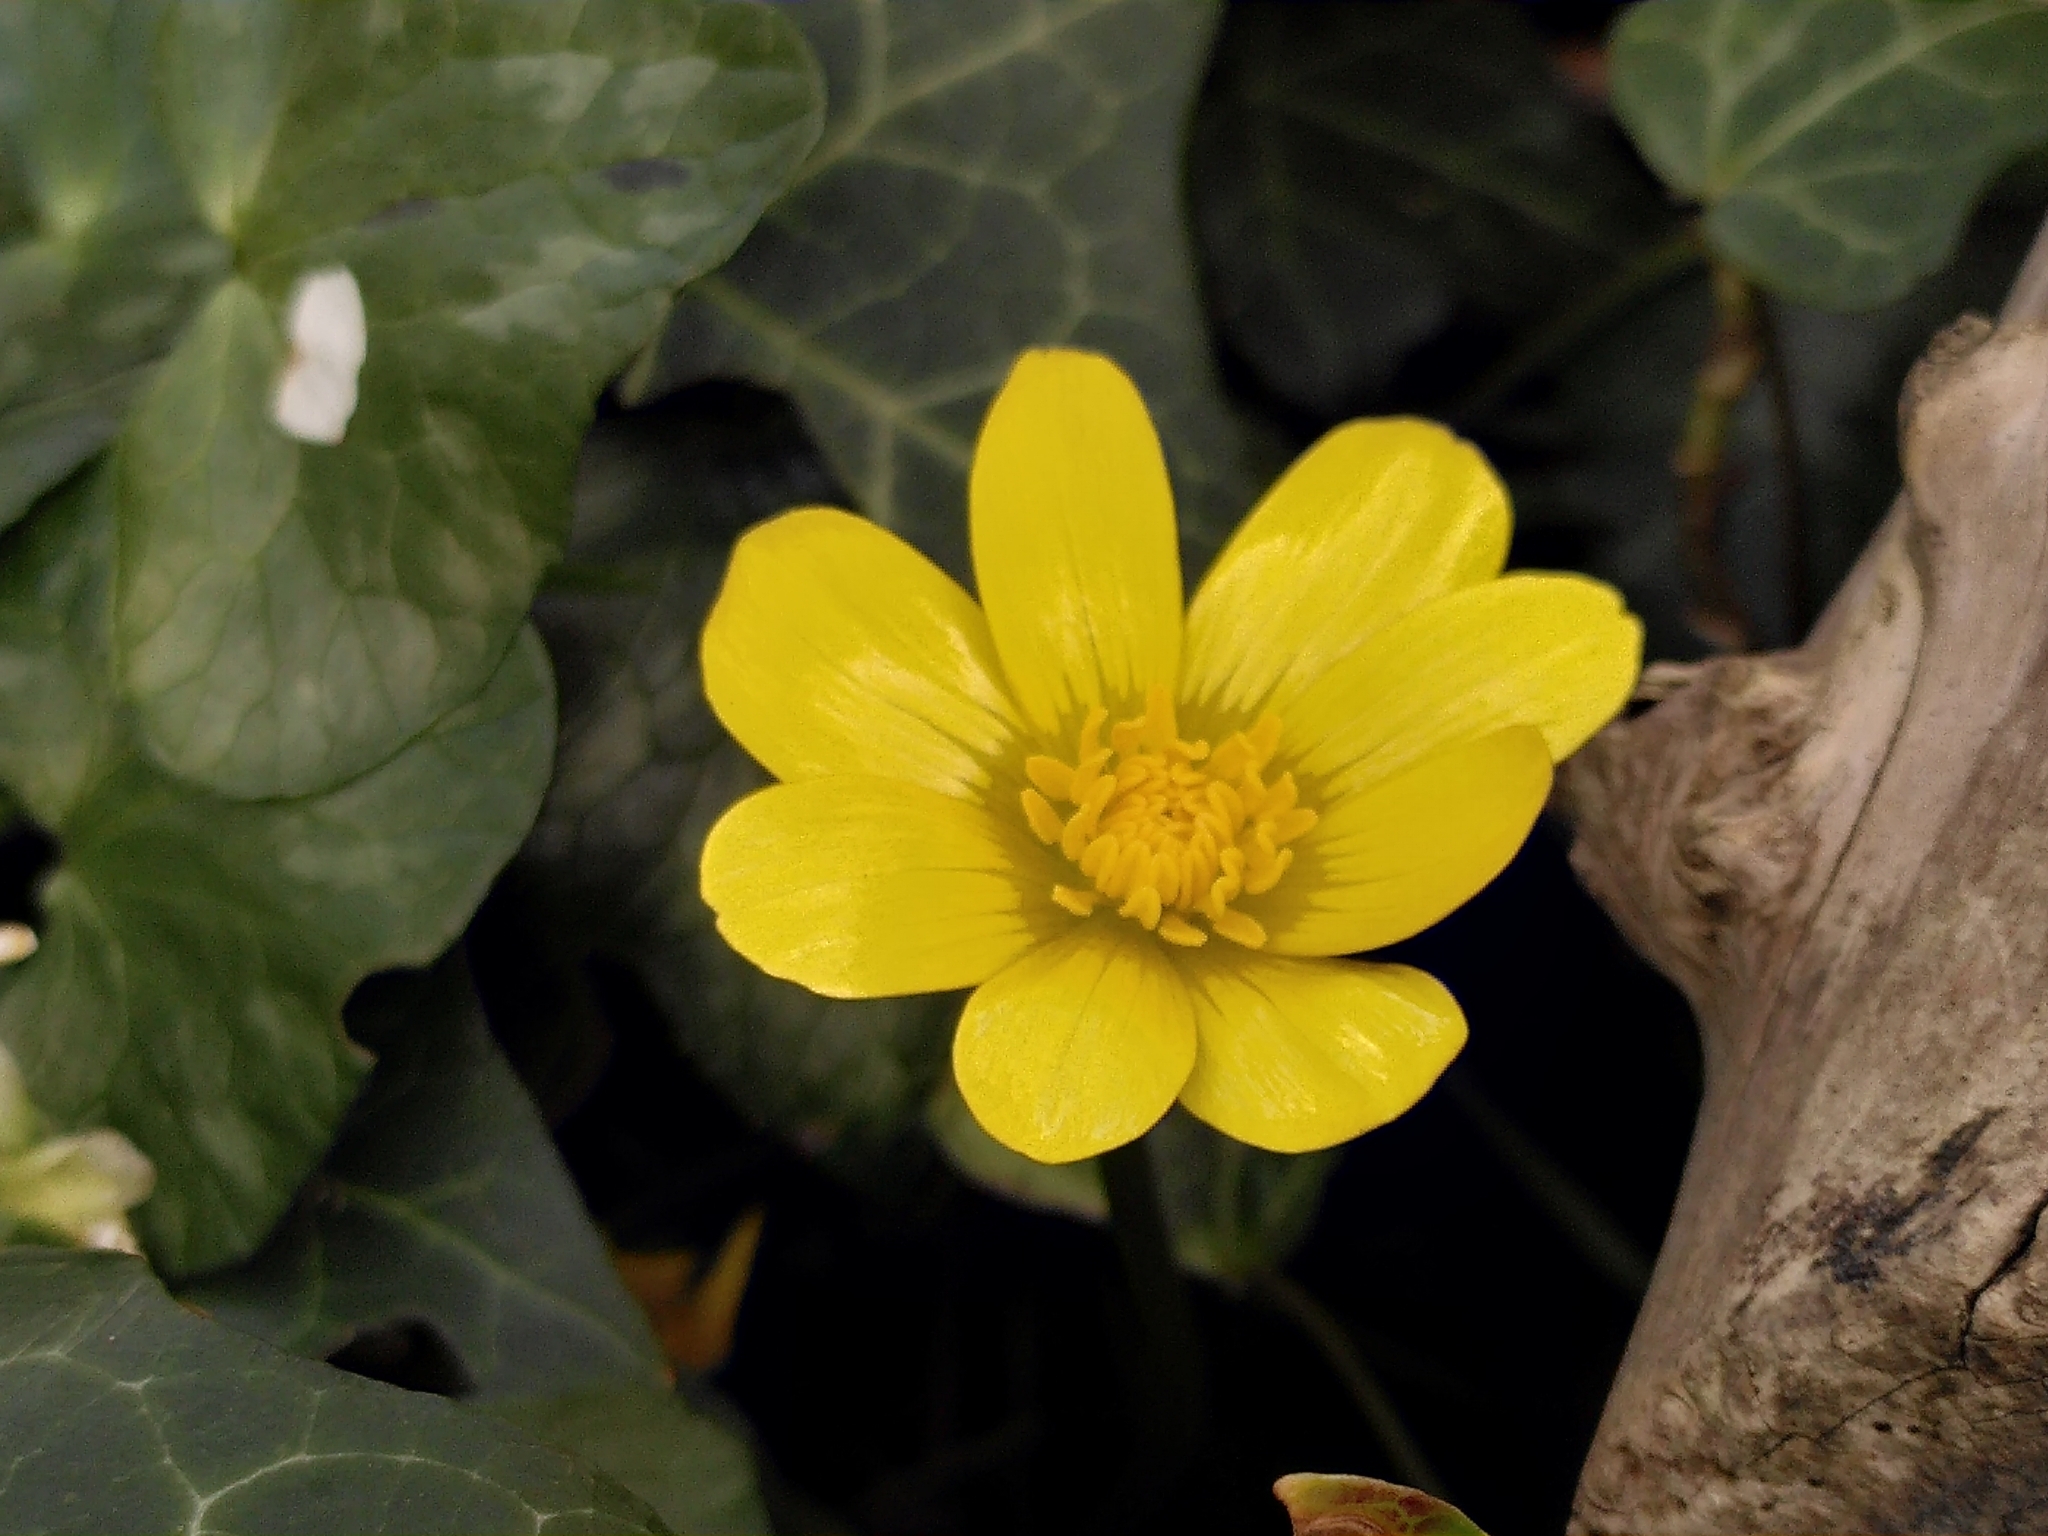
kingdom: Plantae
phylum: Tracheophyta
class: Magnoliopsida
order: Ranunculales
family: Ranunculaceae
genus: Ficaria
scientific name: Ficaria verna
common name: Lesser celandine
